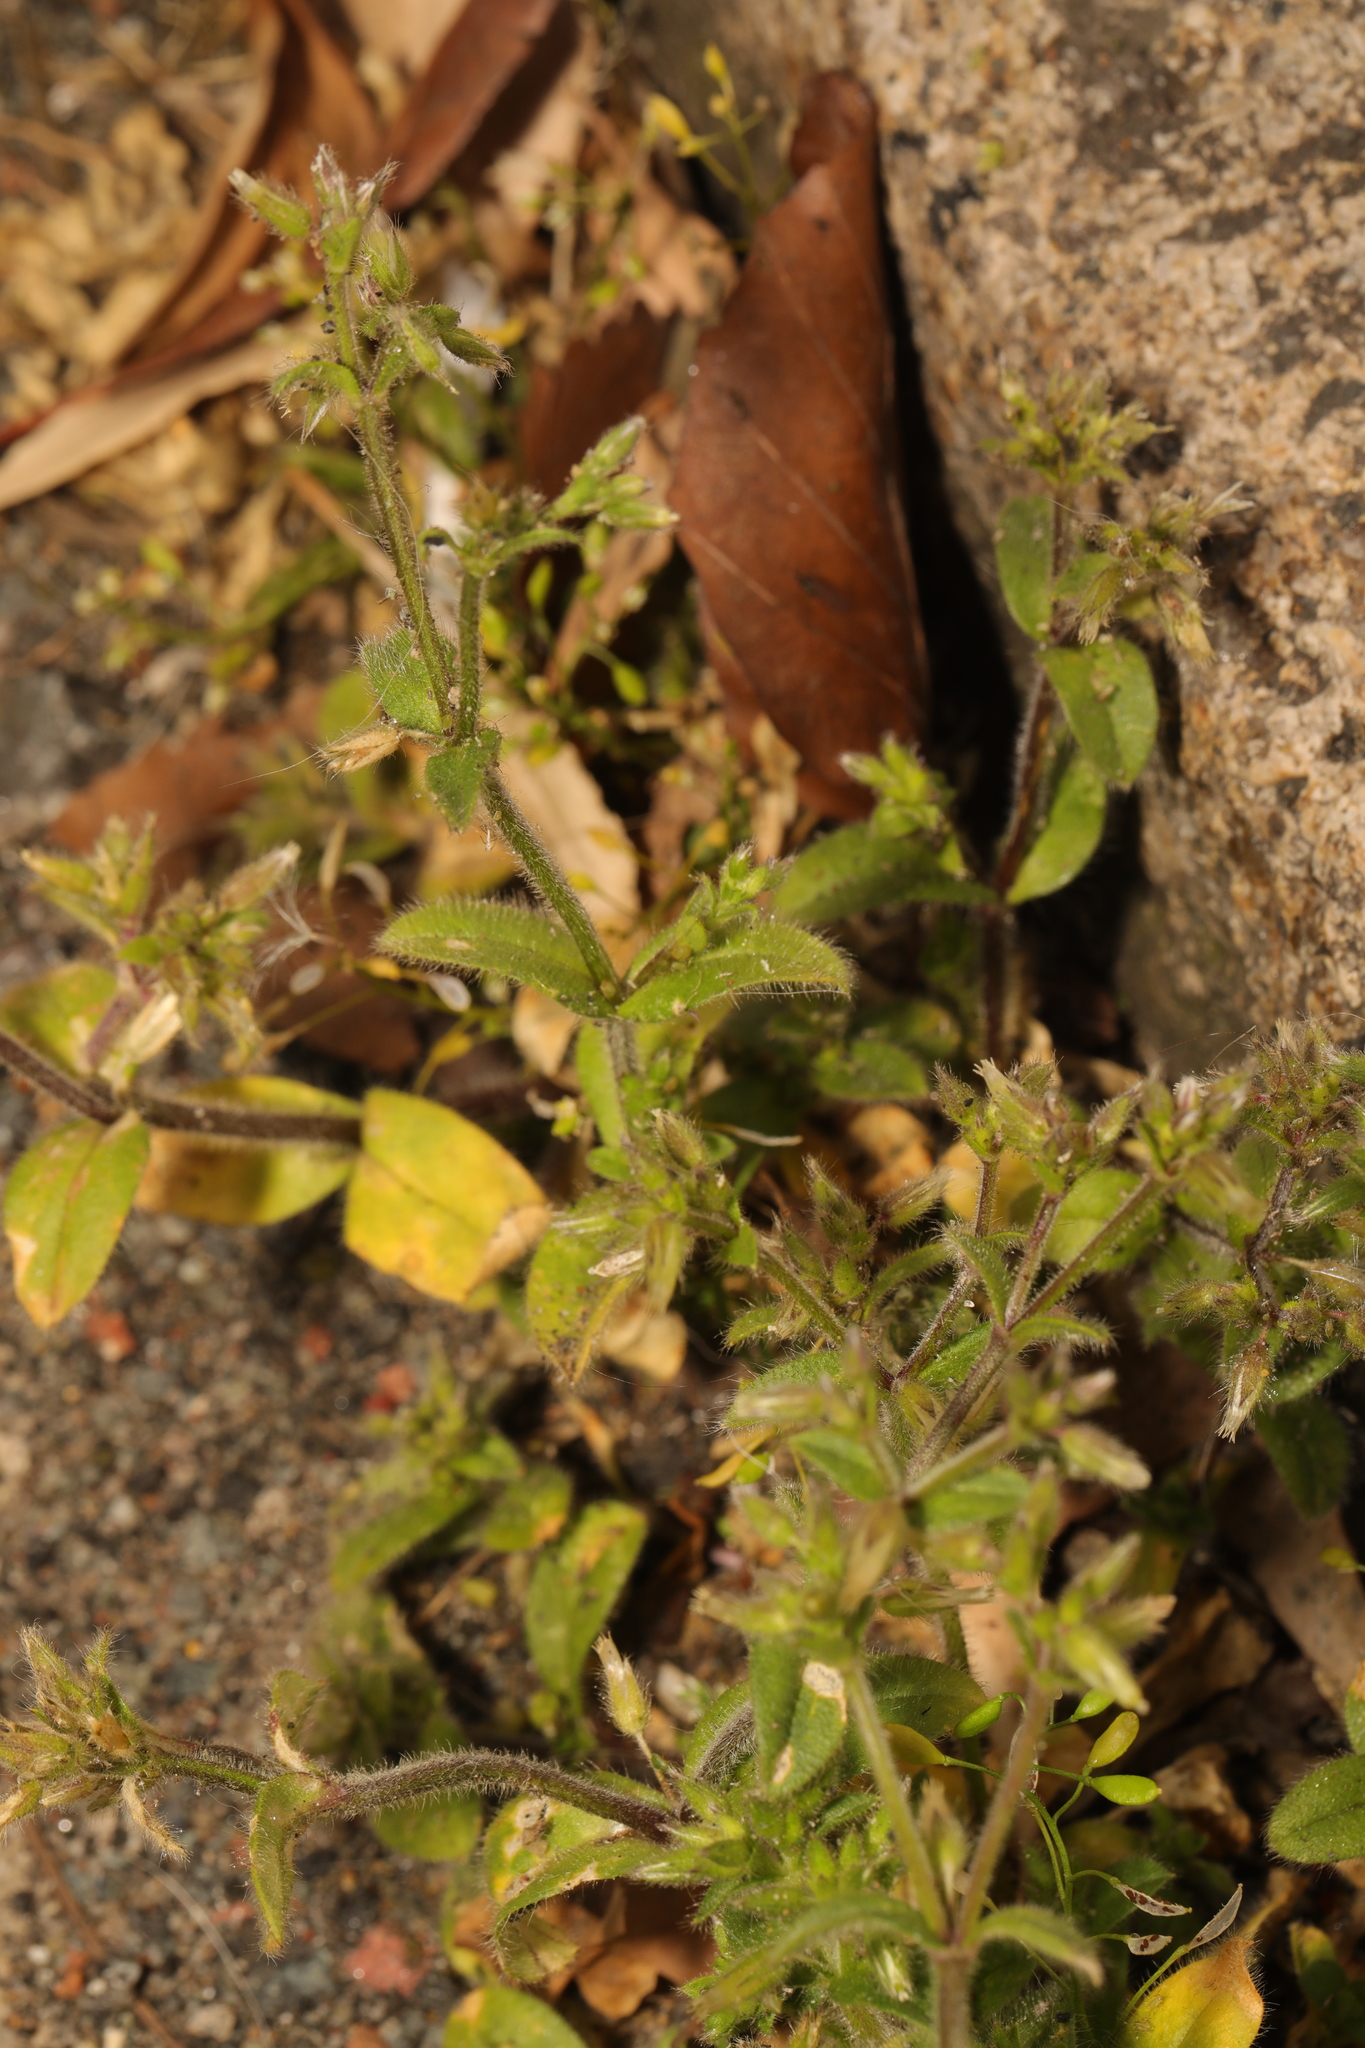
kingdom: Plantae
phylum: Tracheophyta
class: Magnoliopsida
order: Caryophyllales
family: Caryophyllaceae
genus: Cerastium
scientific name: Cerastium glomeratum
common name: Sticky chickweed
